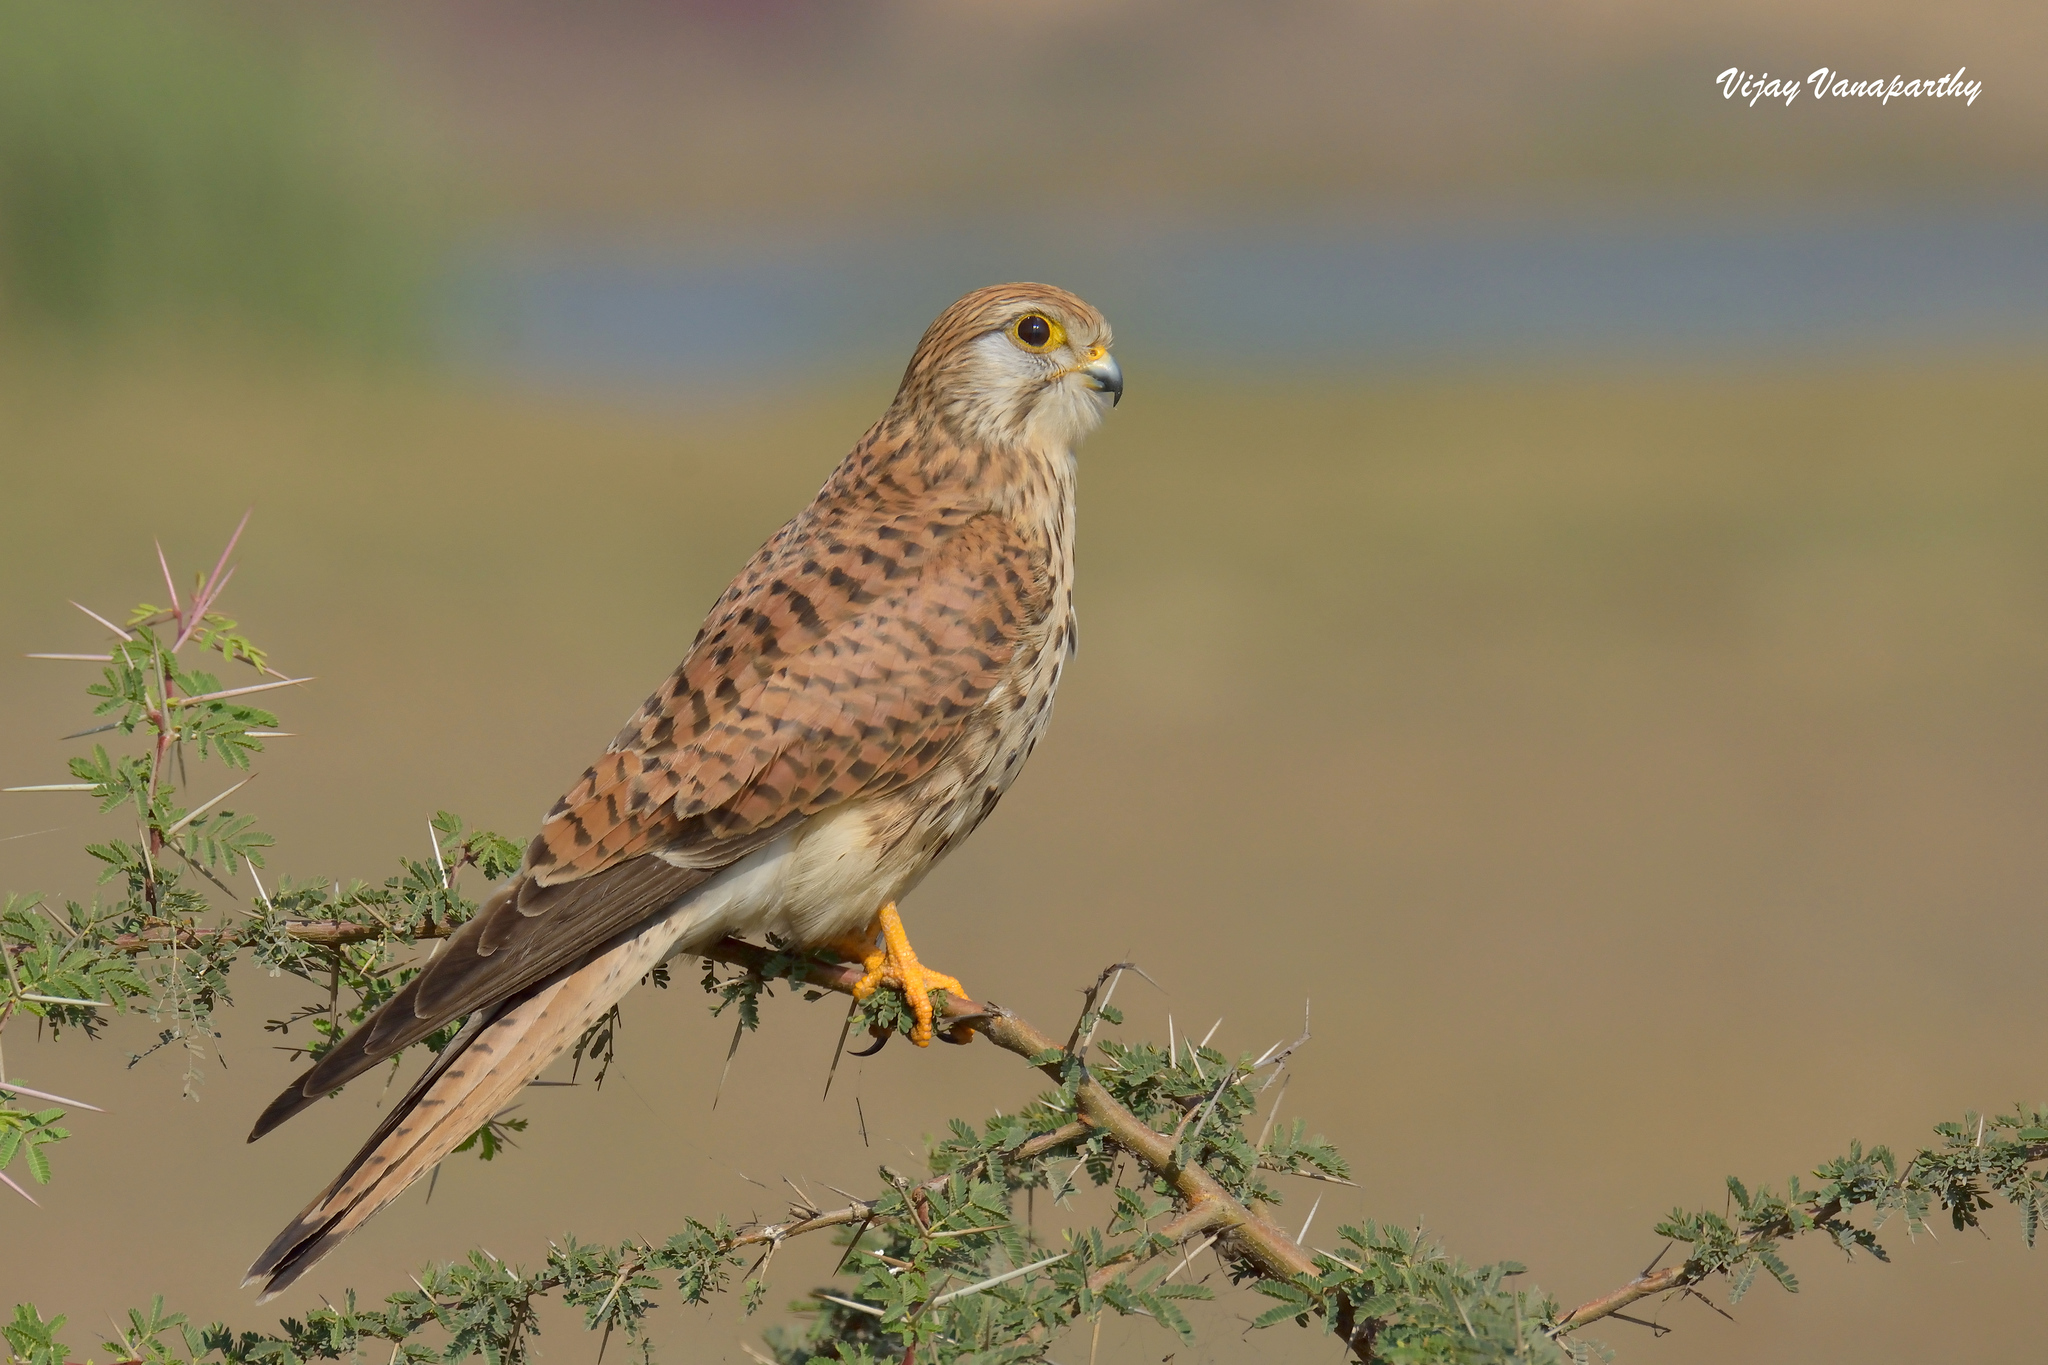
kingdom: Animalia
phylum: Chordata
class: Aves
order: Falconiformes
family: Falconidae
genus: Falco
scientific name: Falco tinnunculus
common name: Common kestrel
